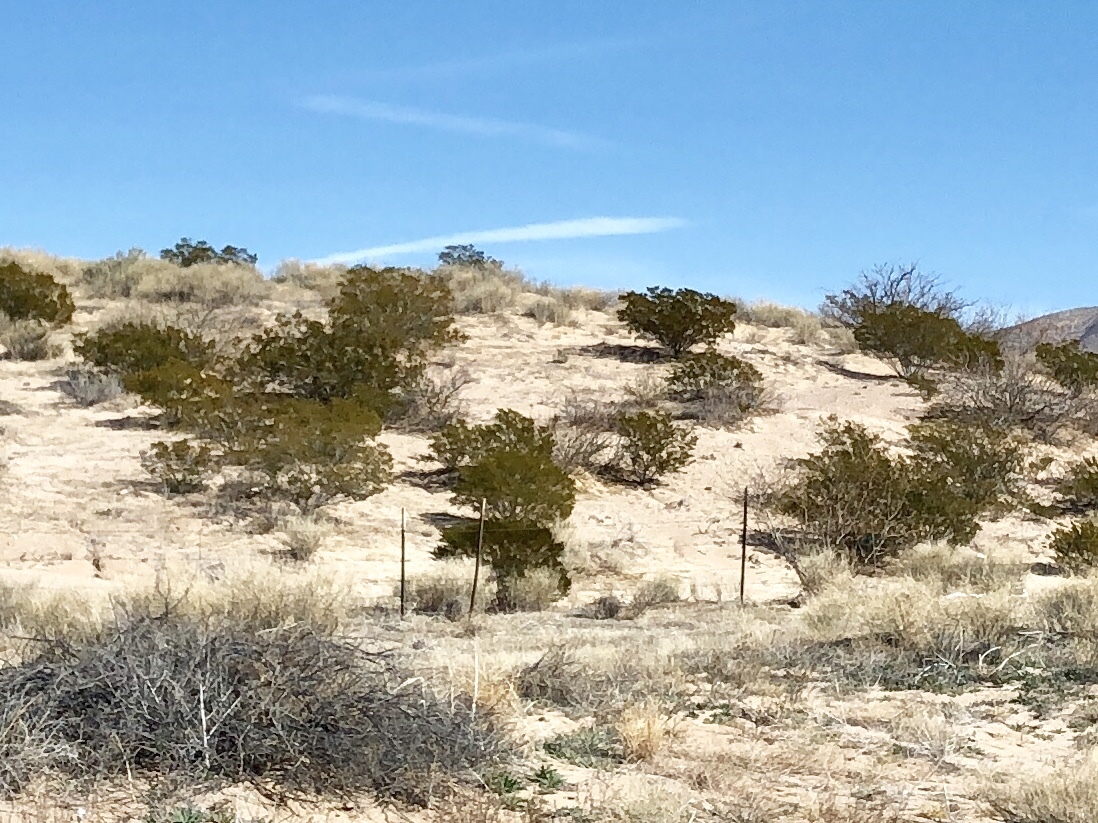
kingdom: Plantae
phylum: Tracheophyta
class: Magnoliopsida
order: Zygophyllales
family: Zygophyllaceae
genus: Larrea
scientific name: Larrea tridentata
